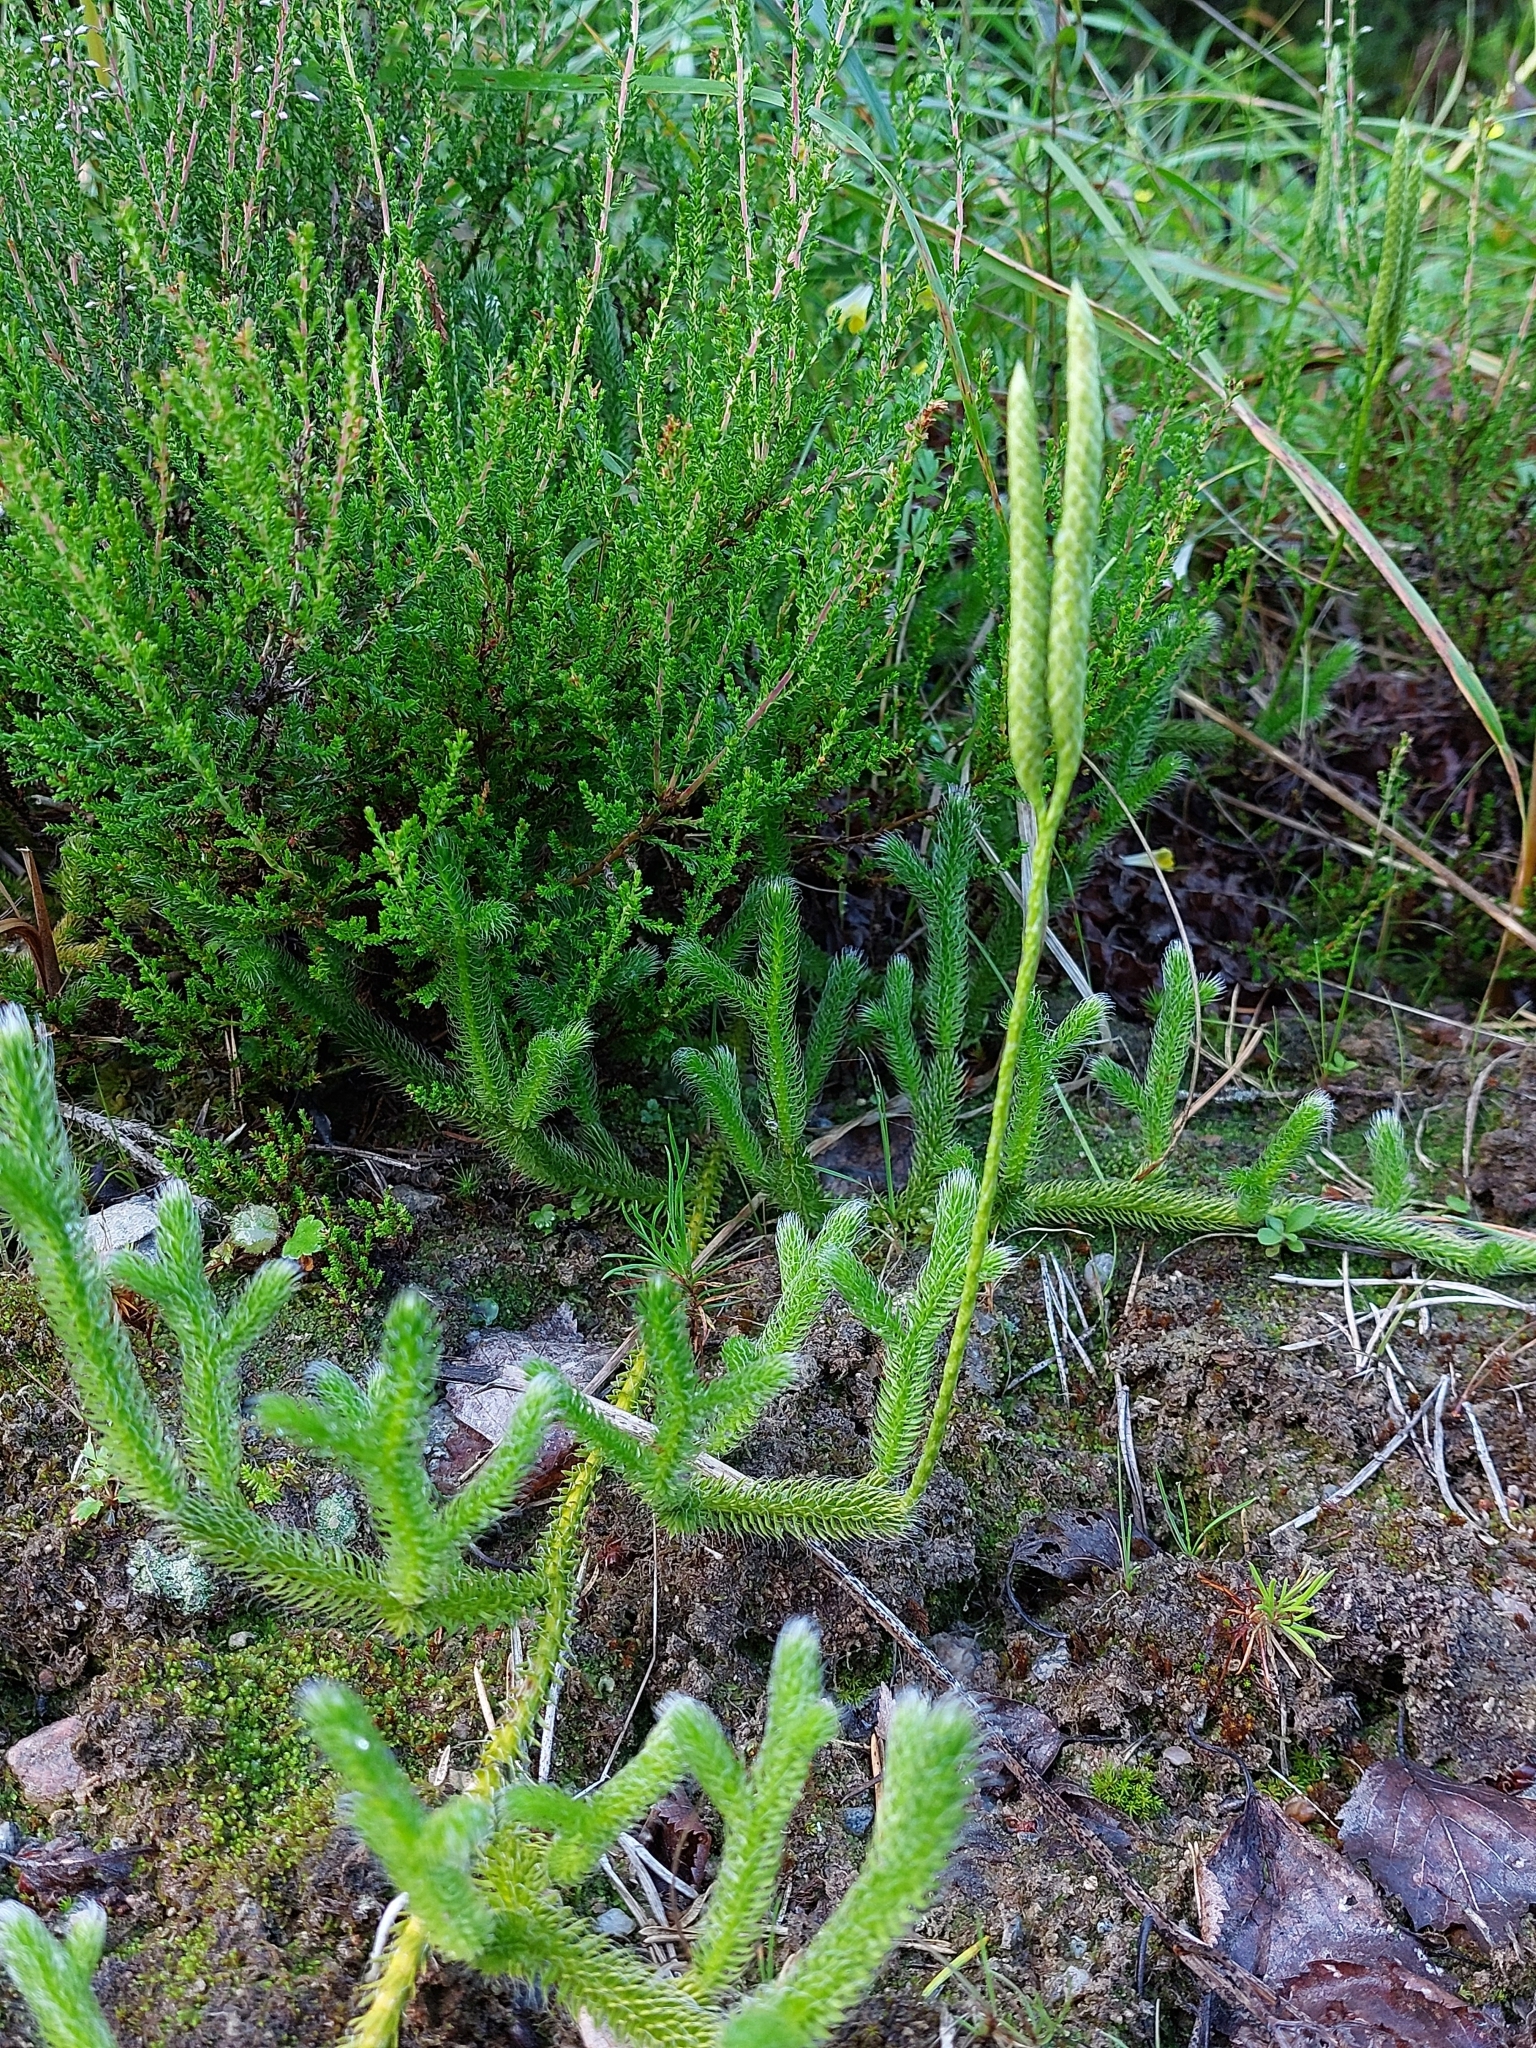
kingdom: Plantae
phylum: Tracheophyta
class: Lycopodiopsida
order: Lycopodiales
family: Lycopodiaceae
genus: Lycopodium
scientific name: Lycopodium clavatum
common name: Stag's-horn clubmoss
